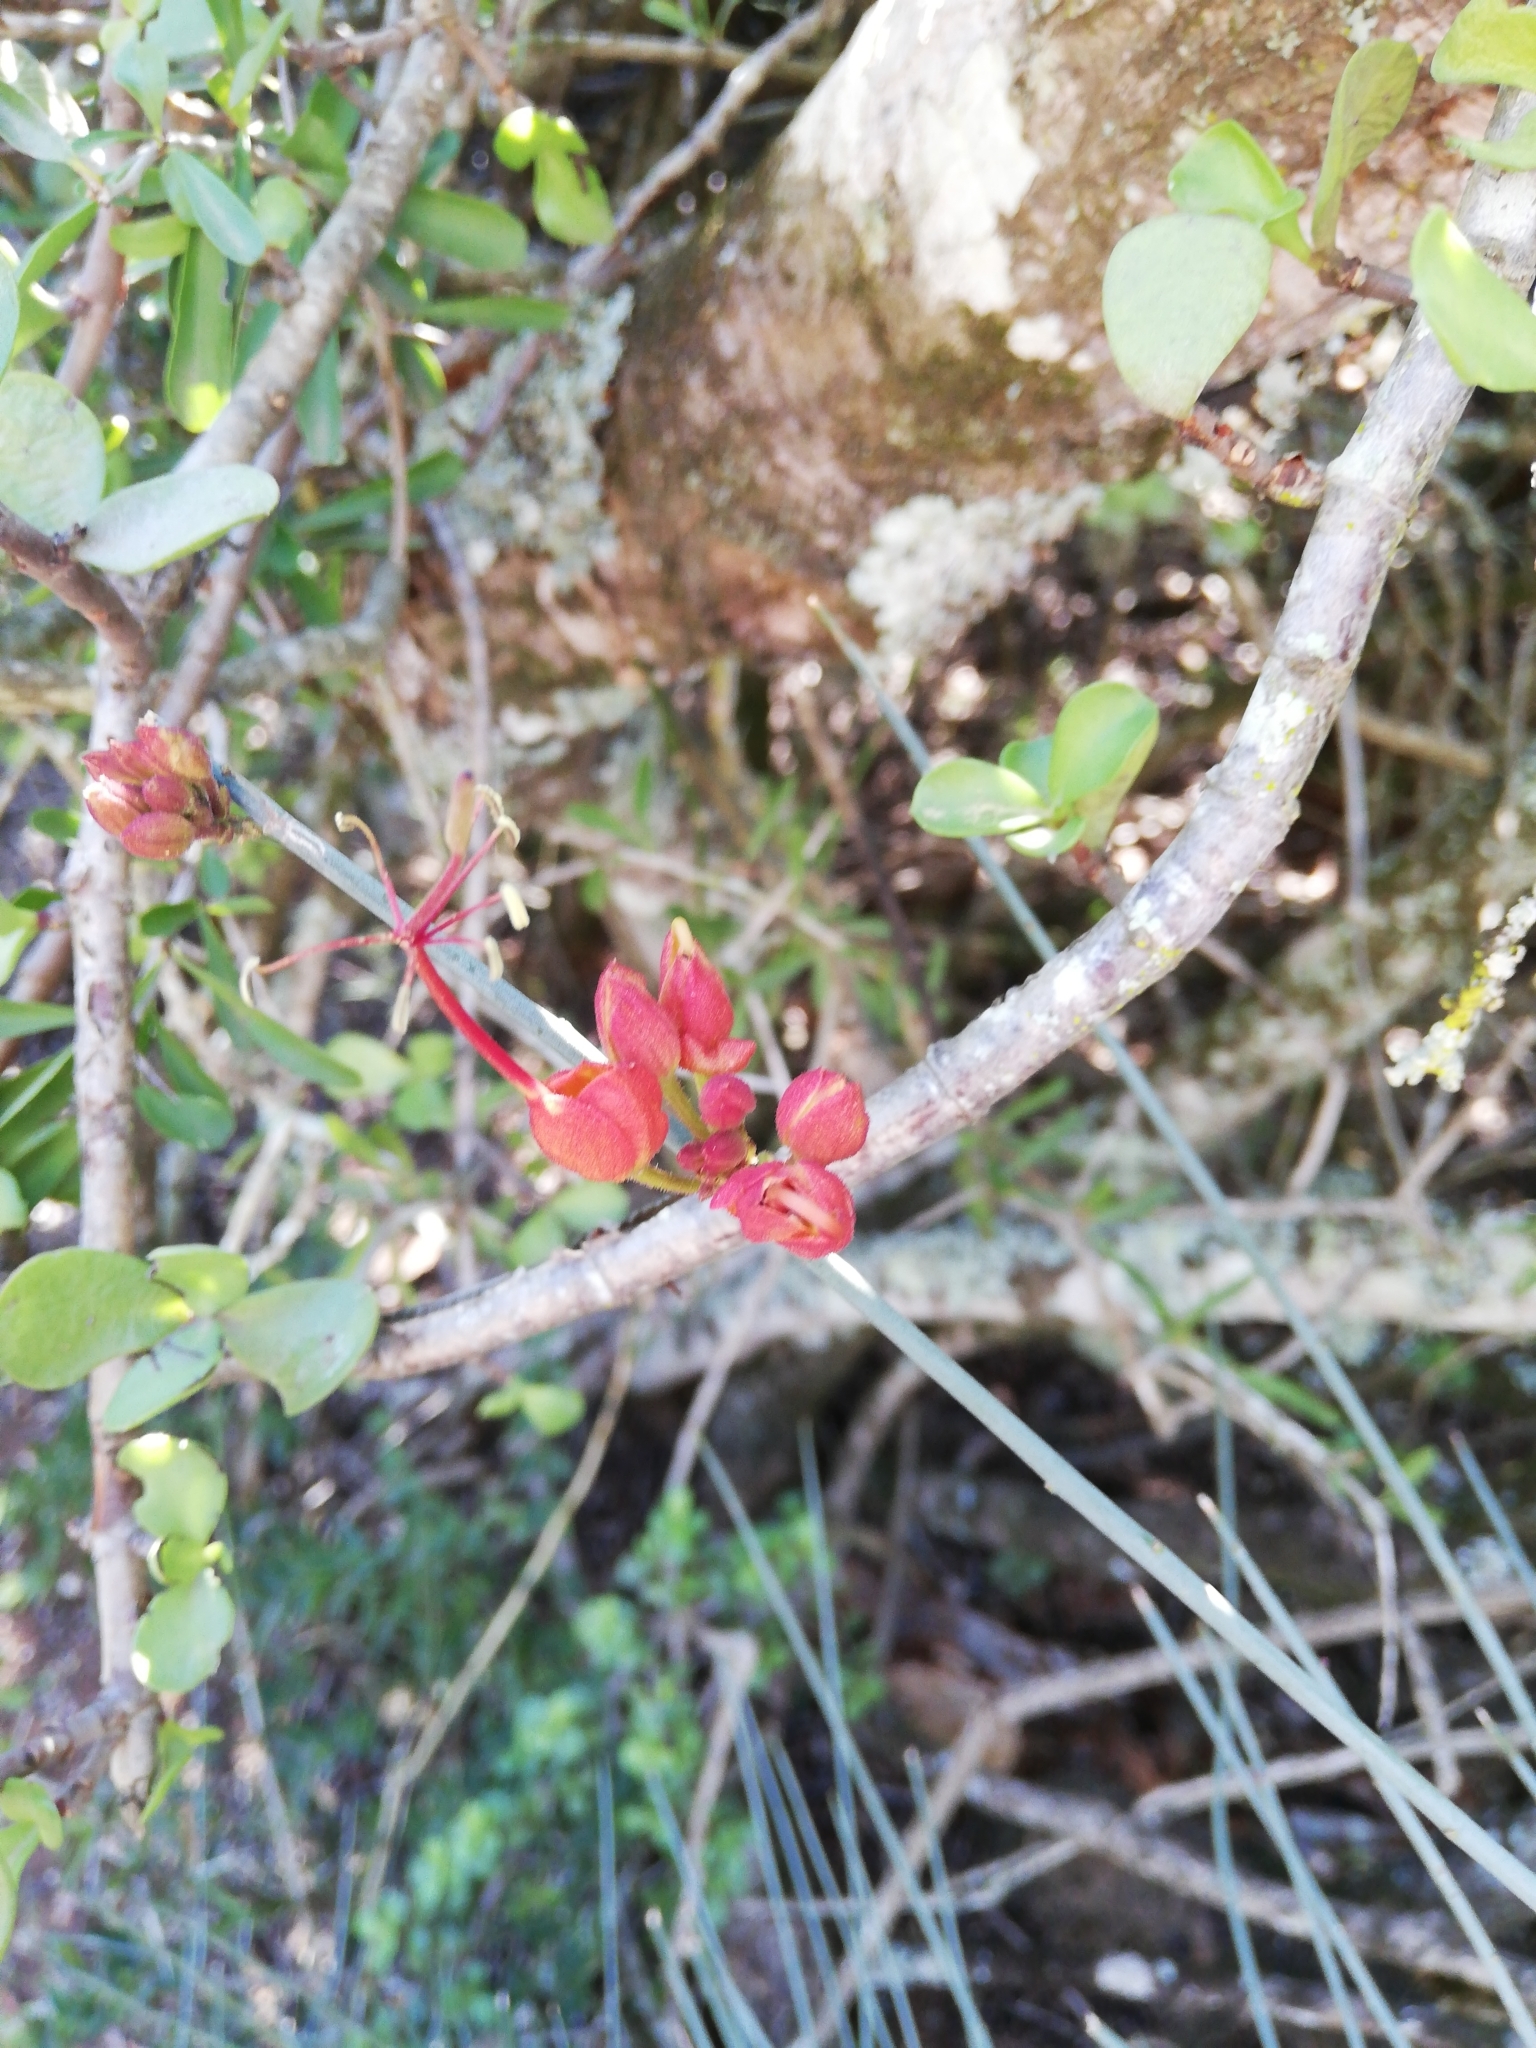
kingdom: Plantae
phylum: Tracheophyta
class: Magnoliopsida
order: Brassicales
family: Capparaceae
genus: Cadaba
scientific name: Cadaba aphylla
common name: Black storm
